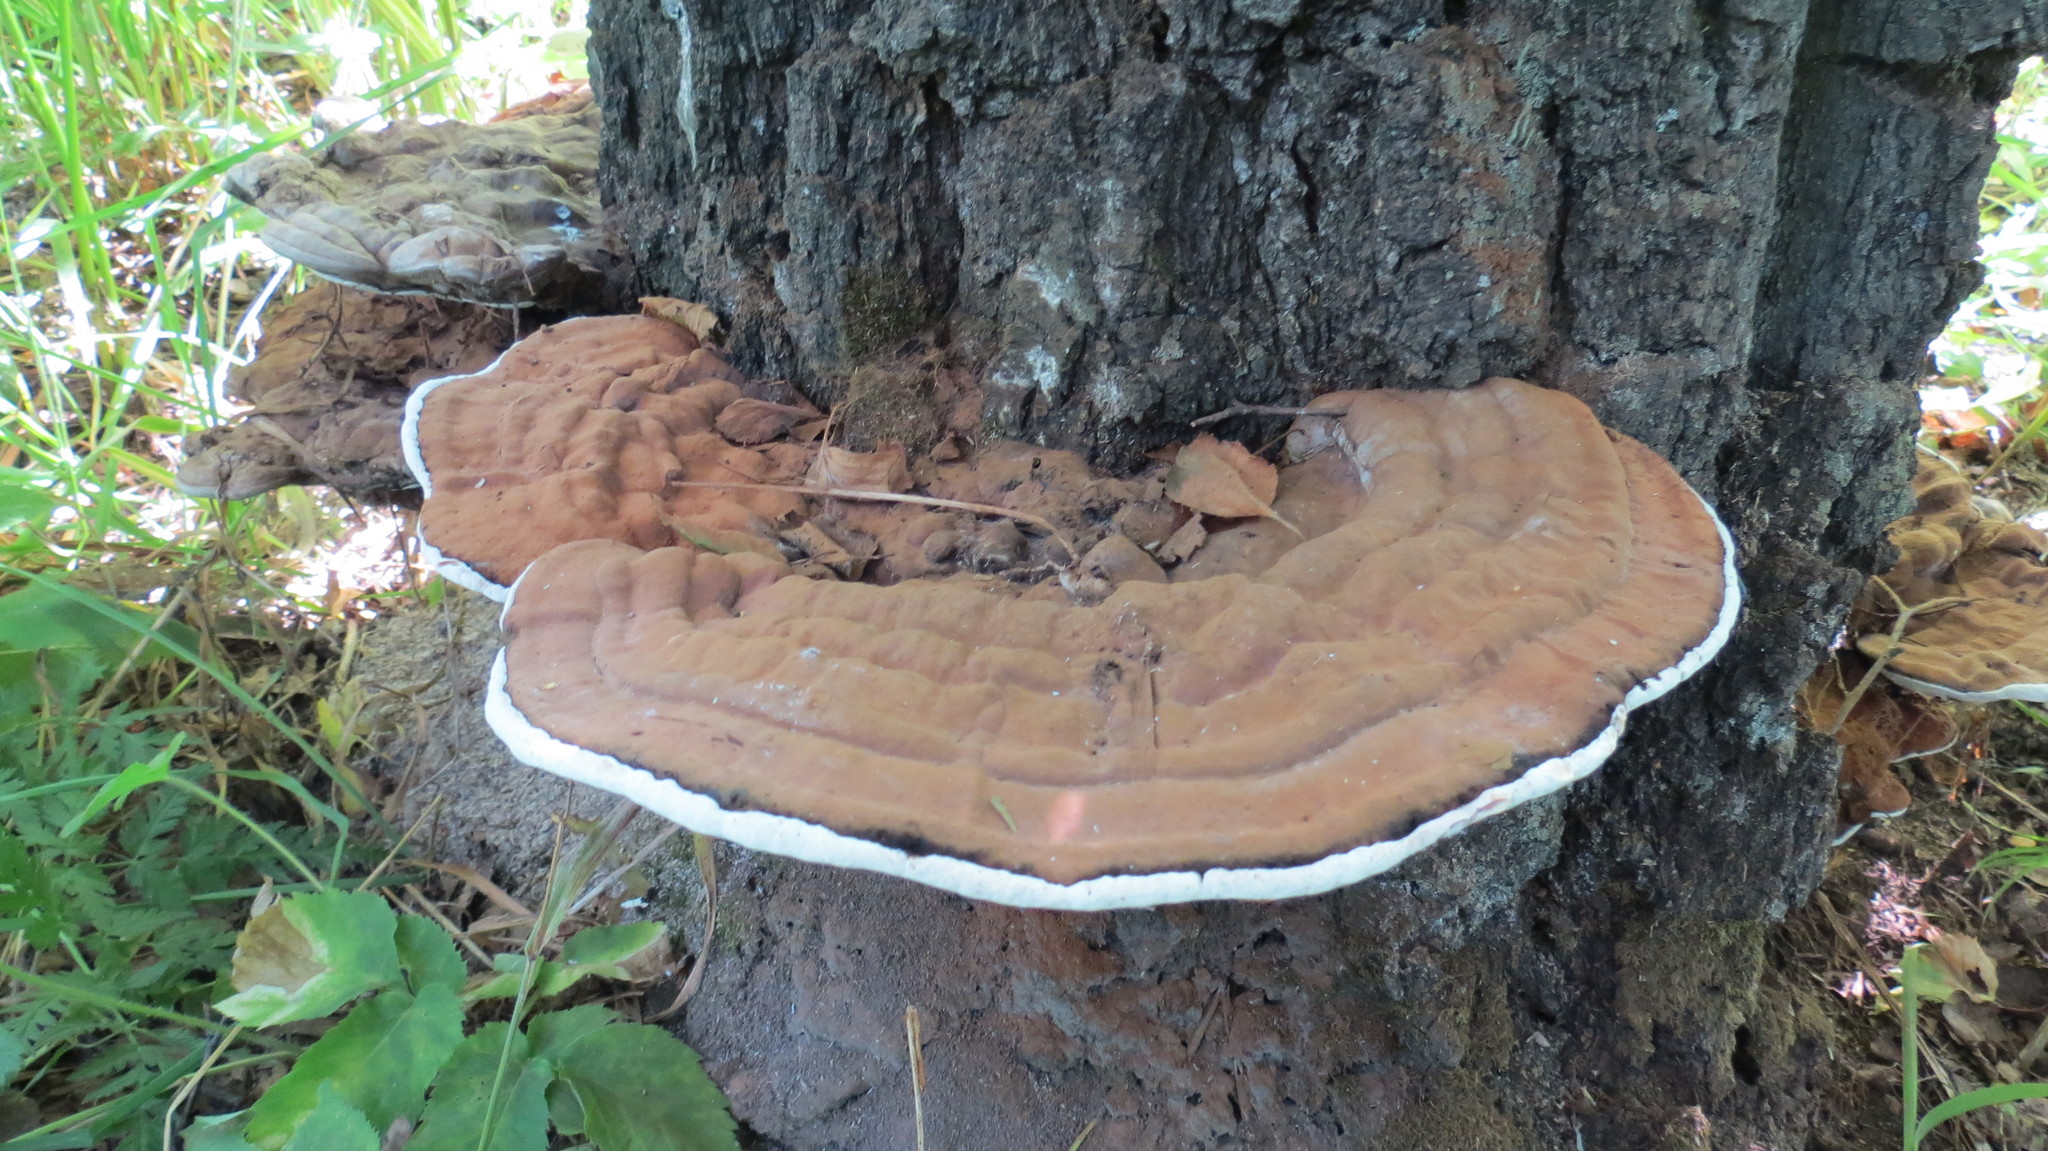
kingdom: Fungi
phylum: Basidiomycota
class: Agaricomycetes
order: Polyporales
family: Polyporaceae
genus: Ganoderma
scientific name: Ganoderma applanatum
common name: Artist's bracket
